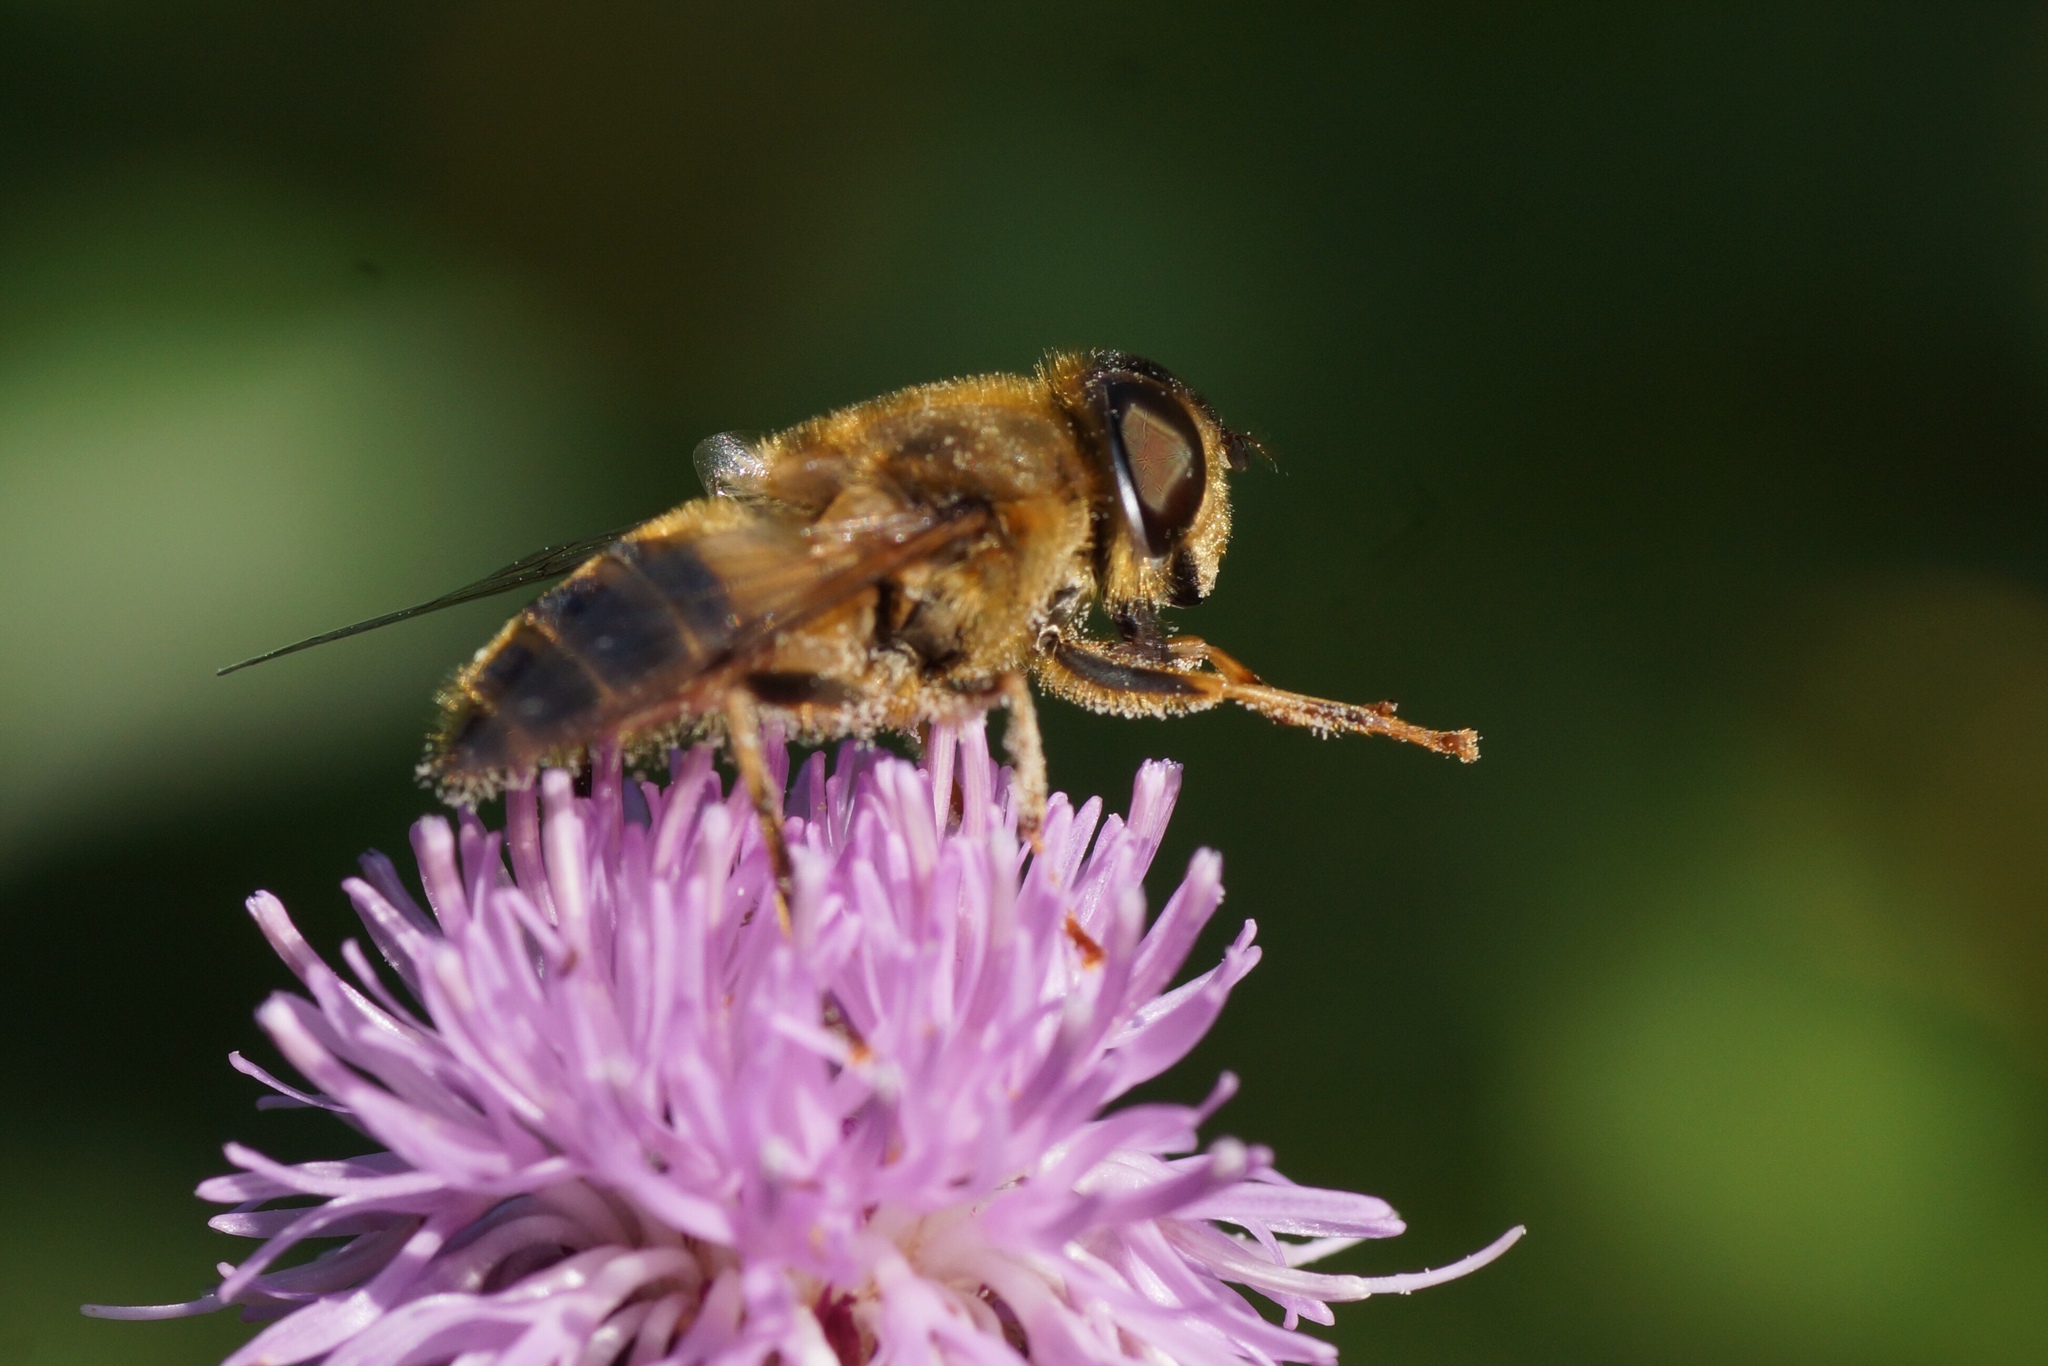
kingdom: Animalia
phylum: Arthropoda
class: Insecta
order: Diptera
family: Syrphidae
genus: Eristalis
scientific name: Eristalis pertinax
